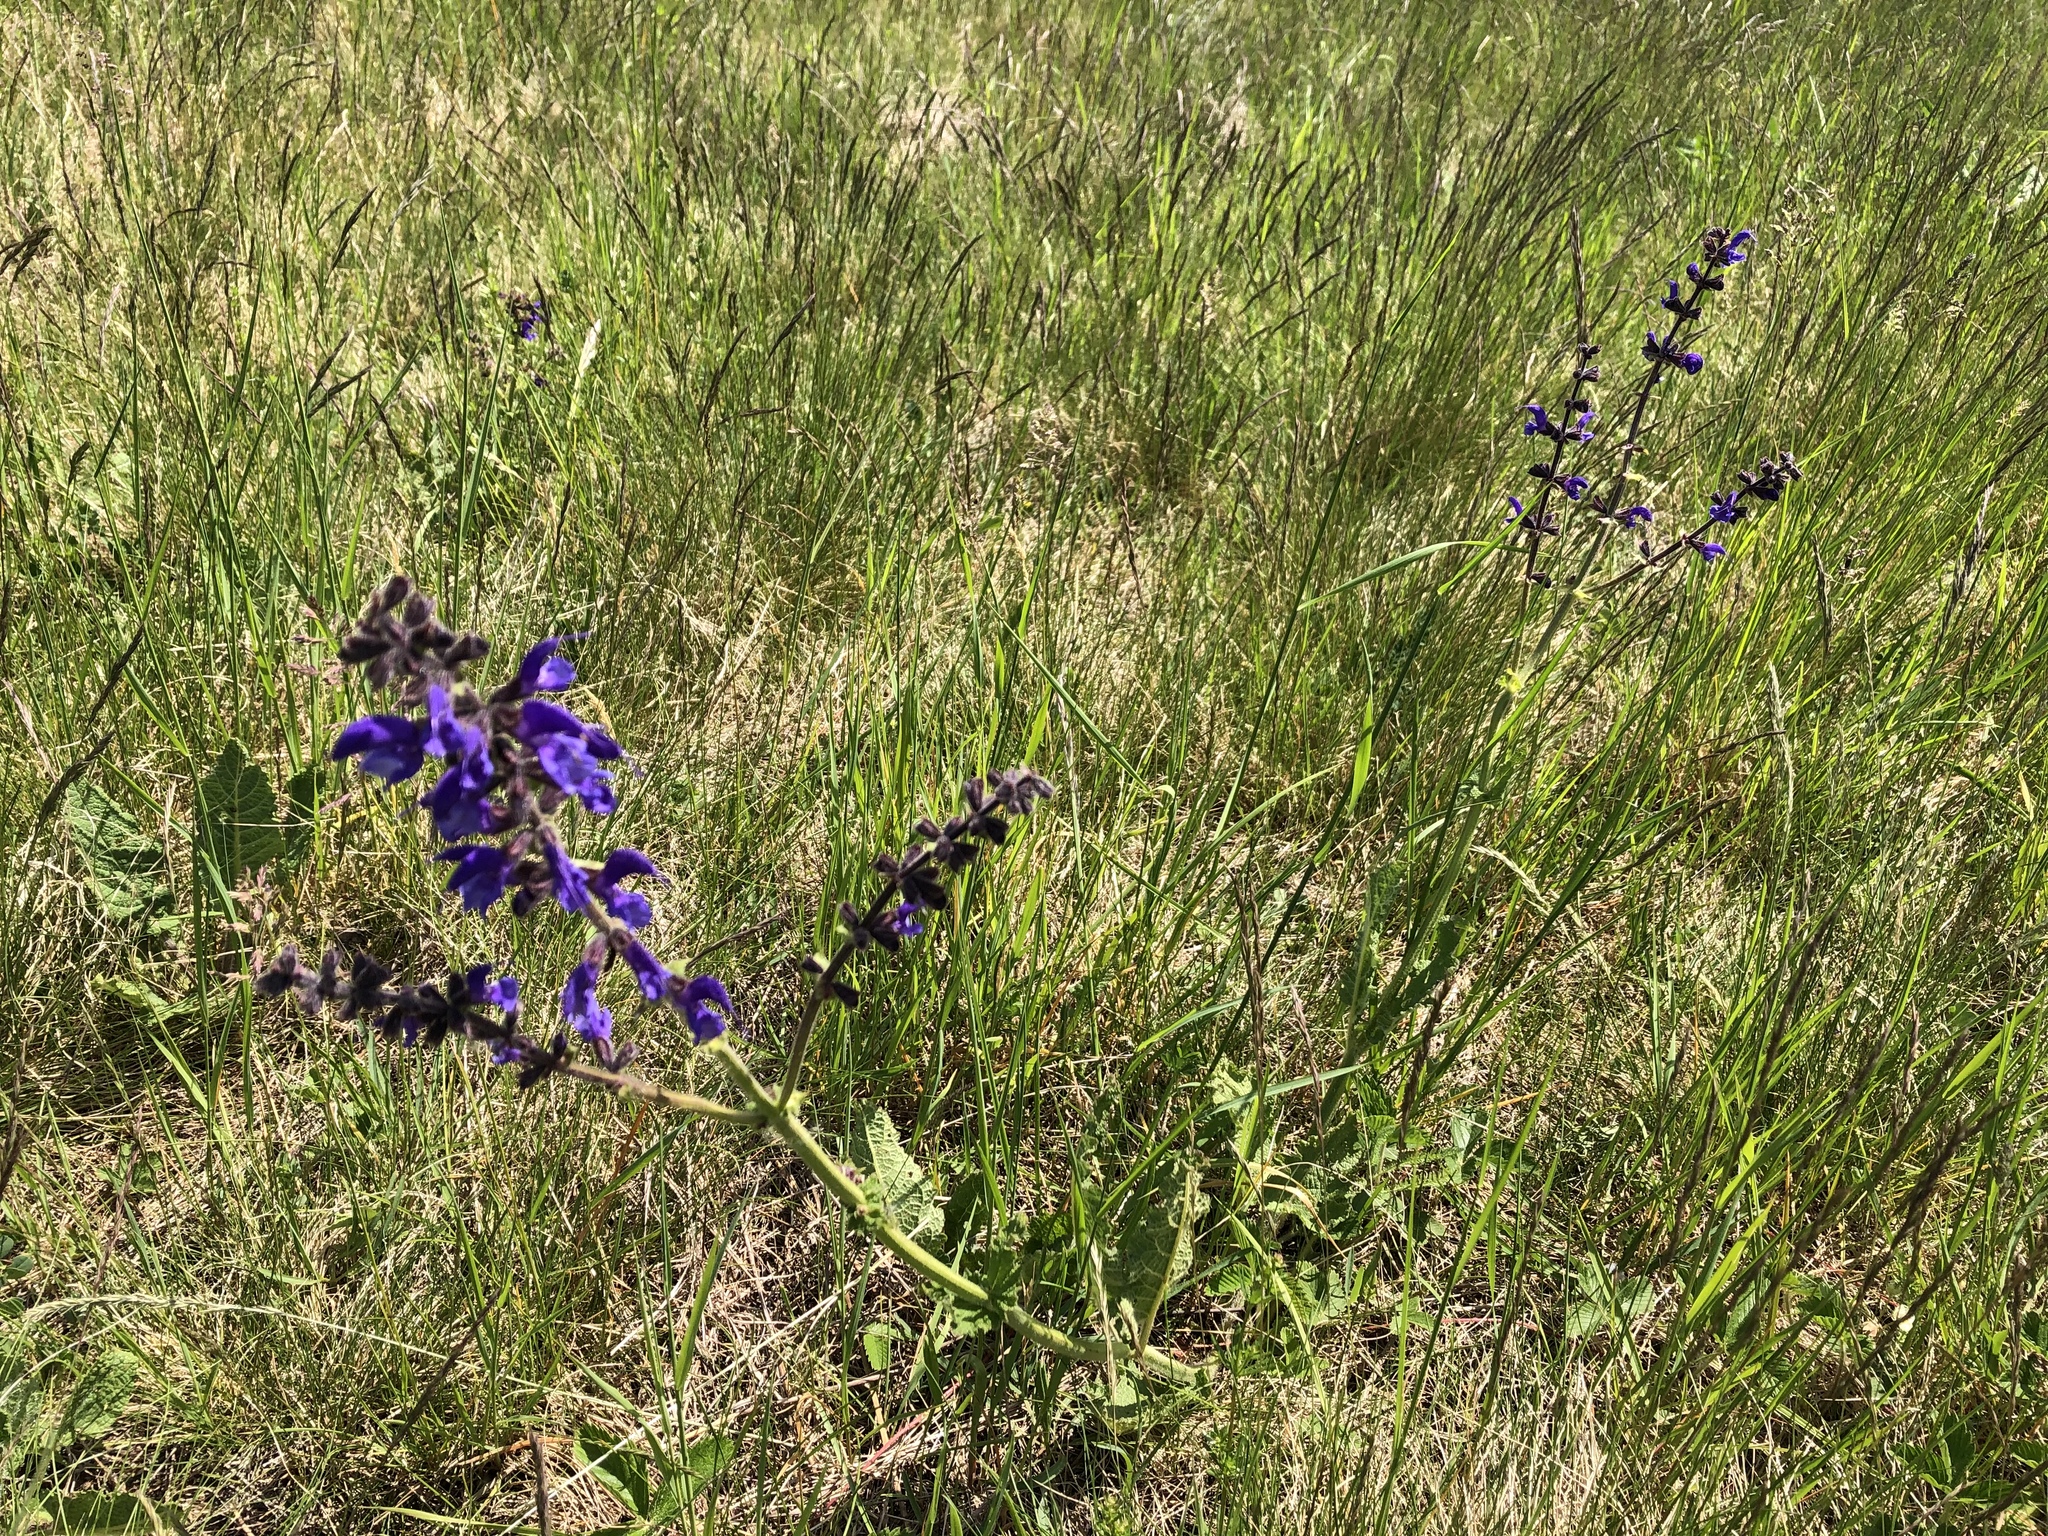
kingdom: Plantae
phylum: Tracheophyta
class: Magnoliopsida
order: Lamiales
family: Lamiaceae
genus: Salvia
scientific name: Salvia pratensis
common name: Meadow sage
